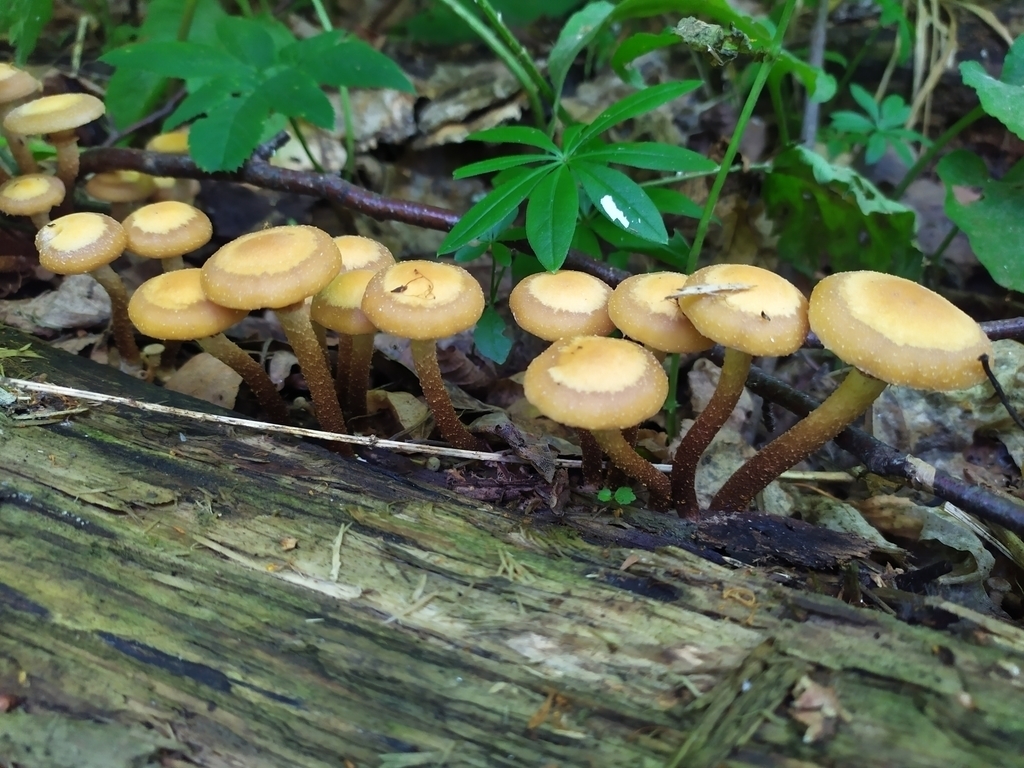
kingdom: Fungi
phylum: Basidiomycota
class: Agaricomycetes
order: Agaricales
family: Strophariaceae
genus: Kuehneromyces
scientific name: Kuehneromyces mutabilis
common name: Sheathed woodtuft
